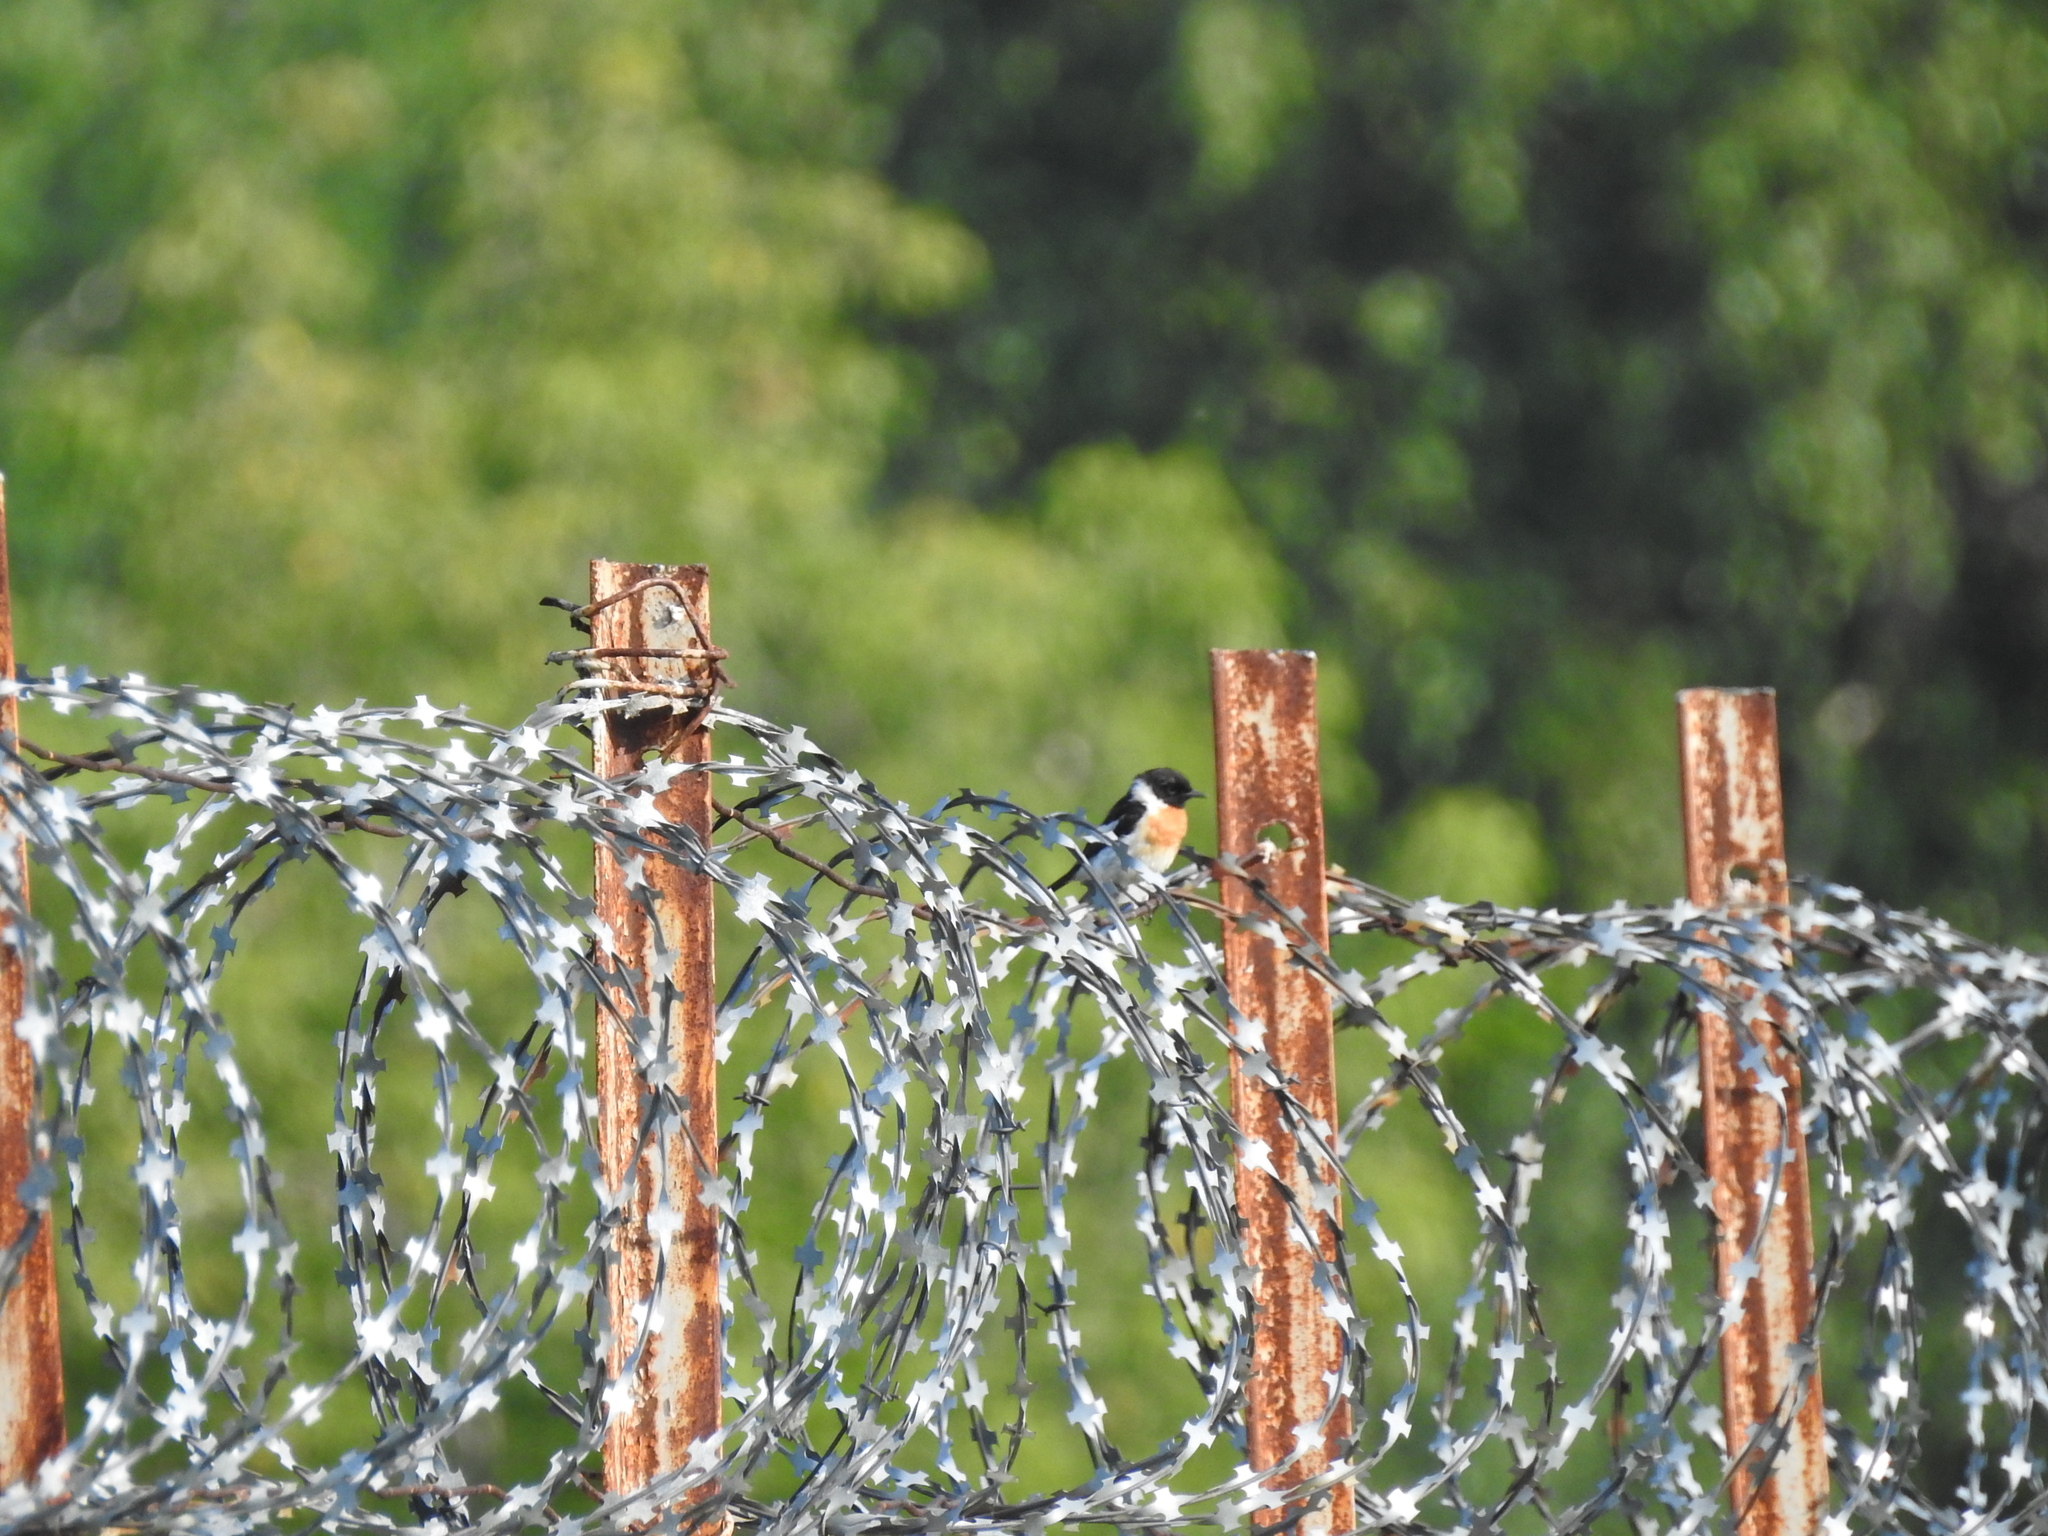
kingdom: Animalia
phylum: Chordata
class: Aves
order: Passeriformes
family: Muscicapidae
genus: Saxicola
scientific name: Saxicola maurus
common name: Siberian stonechat
